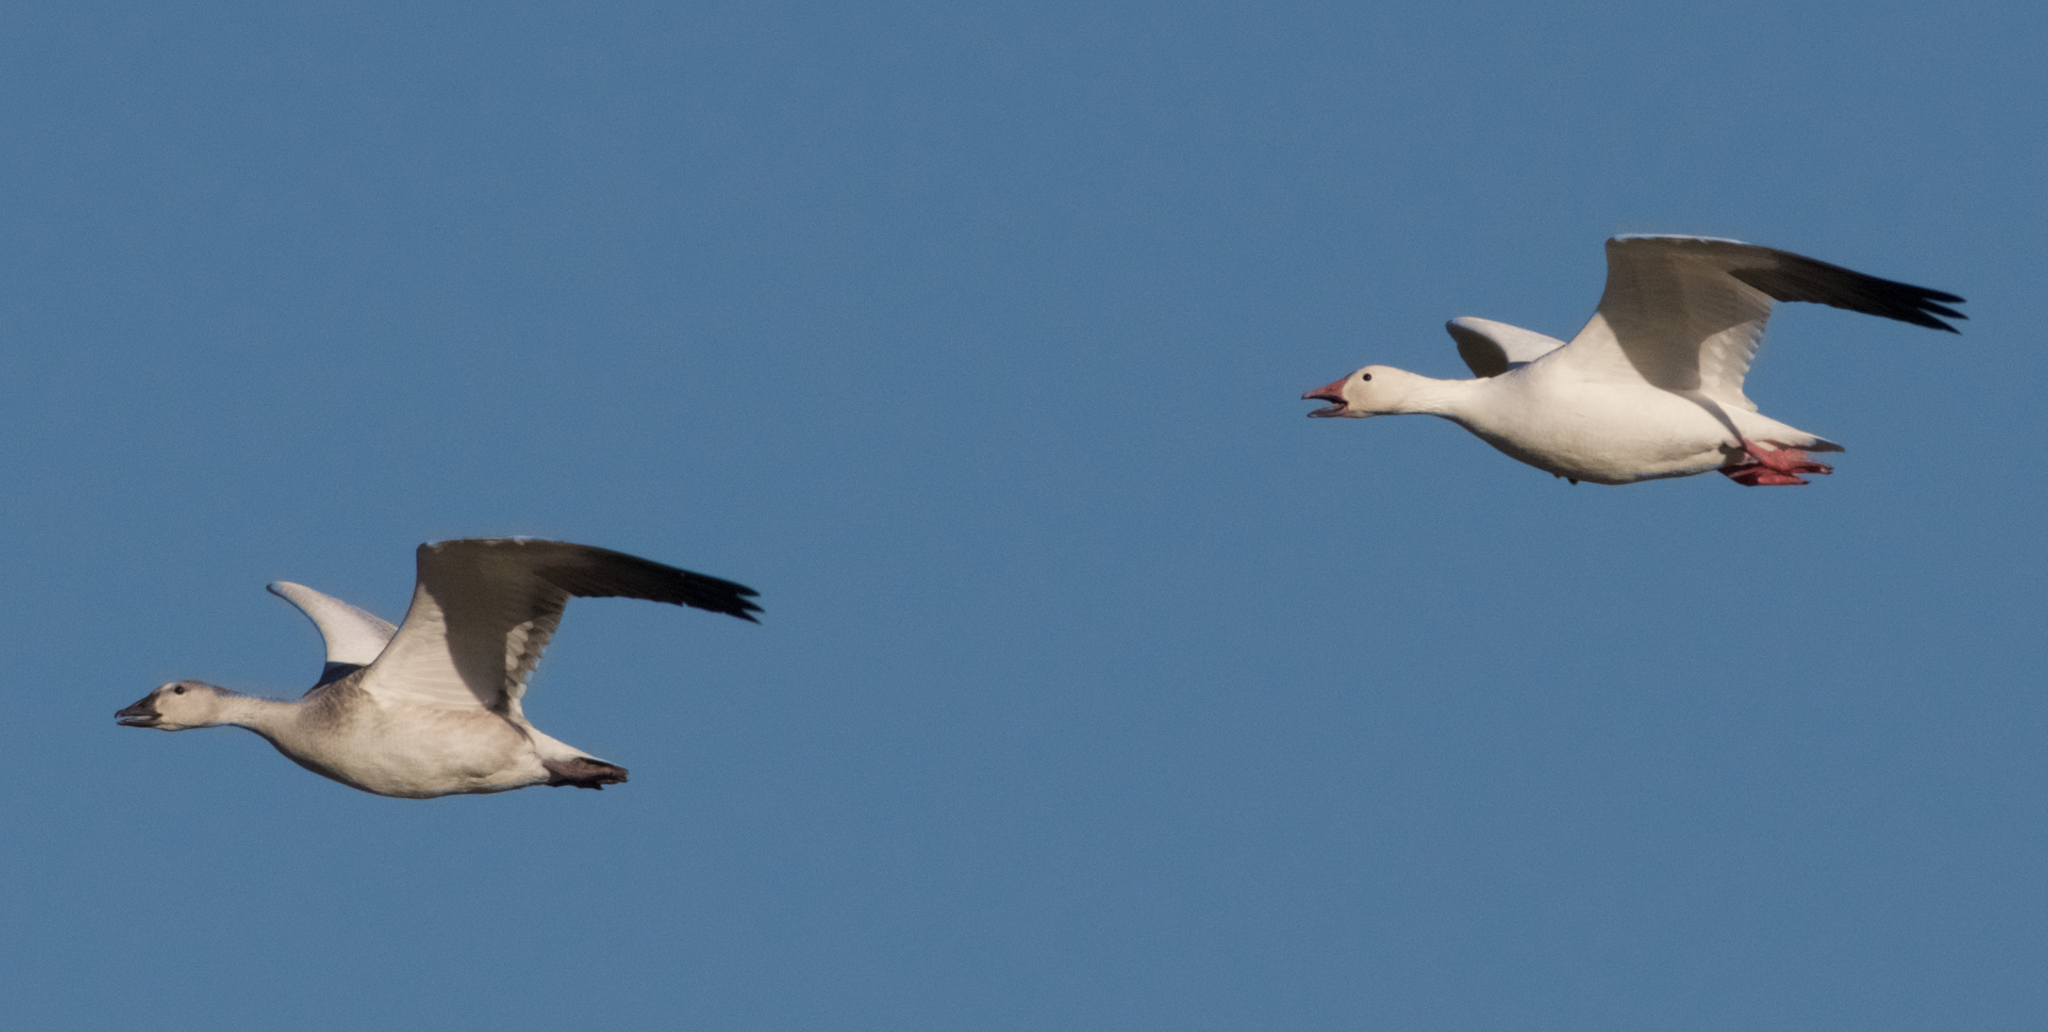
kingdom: Animalia
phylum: Chordata
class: Aves
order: Anseriformes
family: Anatidae
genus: Anser
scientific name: Anser caerulescens
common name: Snow goose
